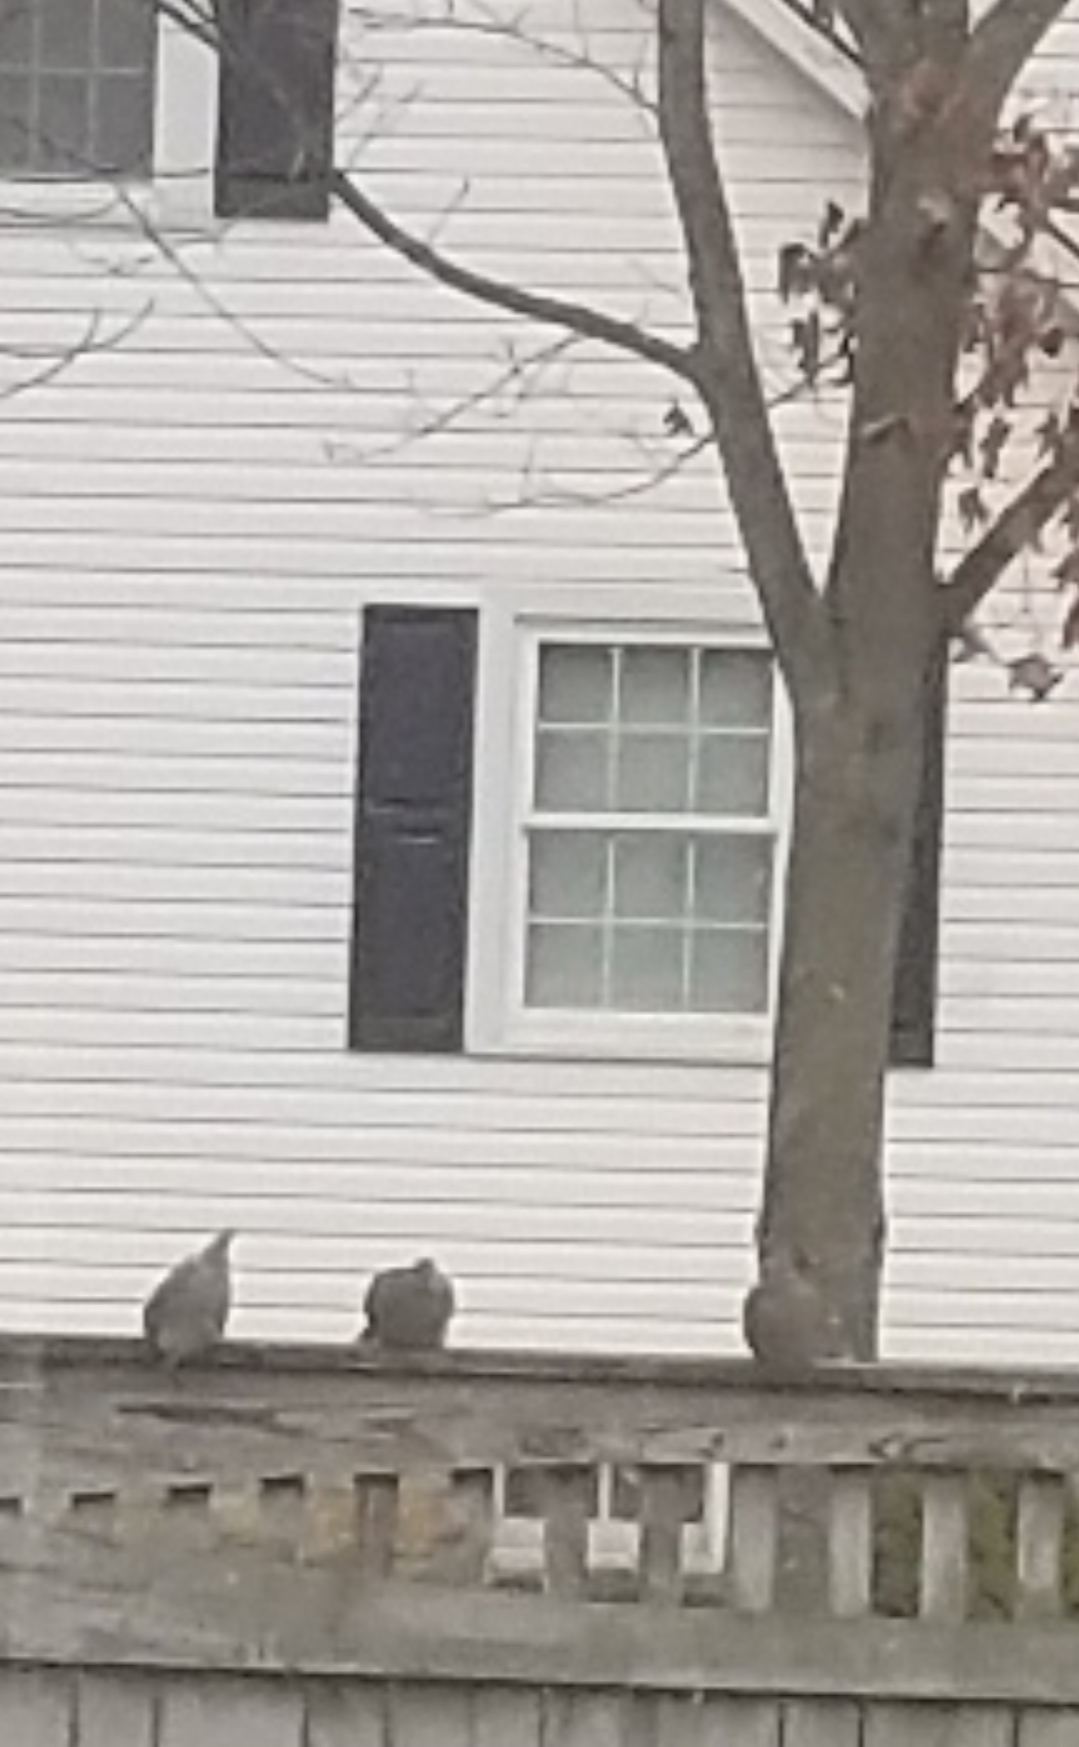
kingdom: Animalia
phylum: Chordata
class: Aves
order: Columbiformes
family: Columbidae
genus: Zenaida
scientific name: Zenaida macroura
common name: Mourning dove
